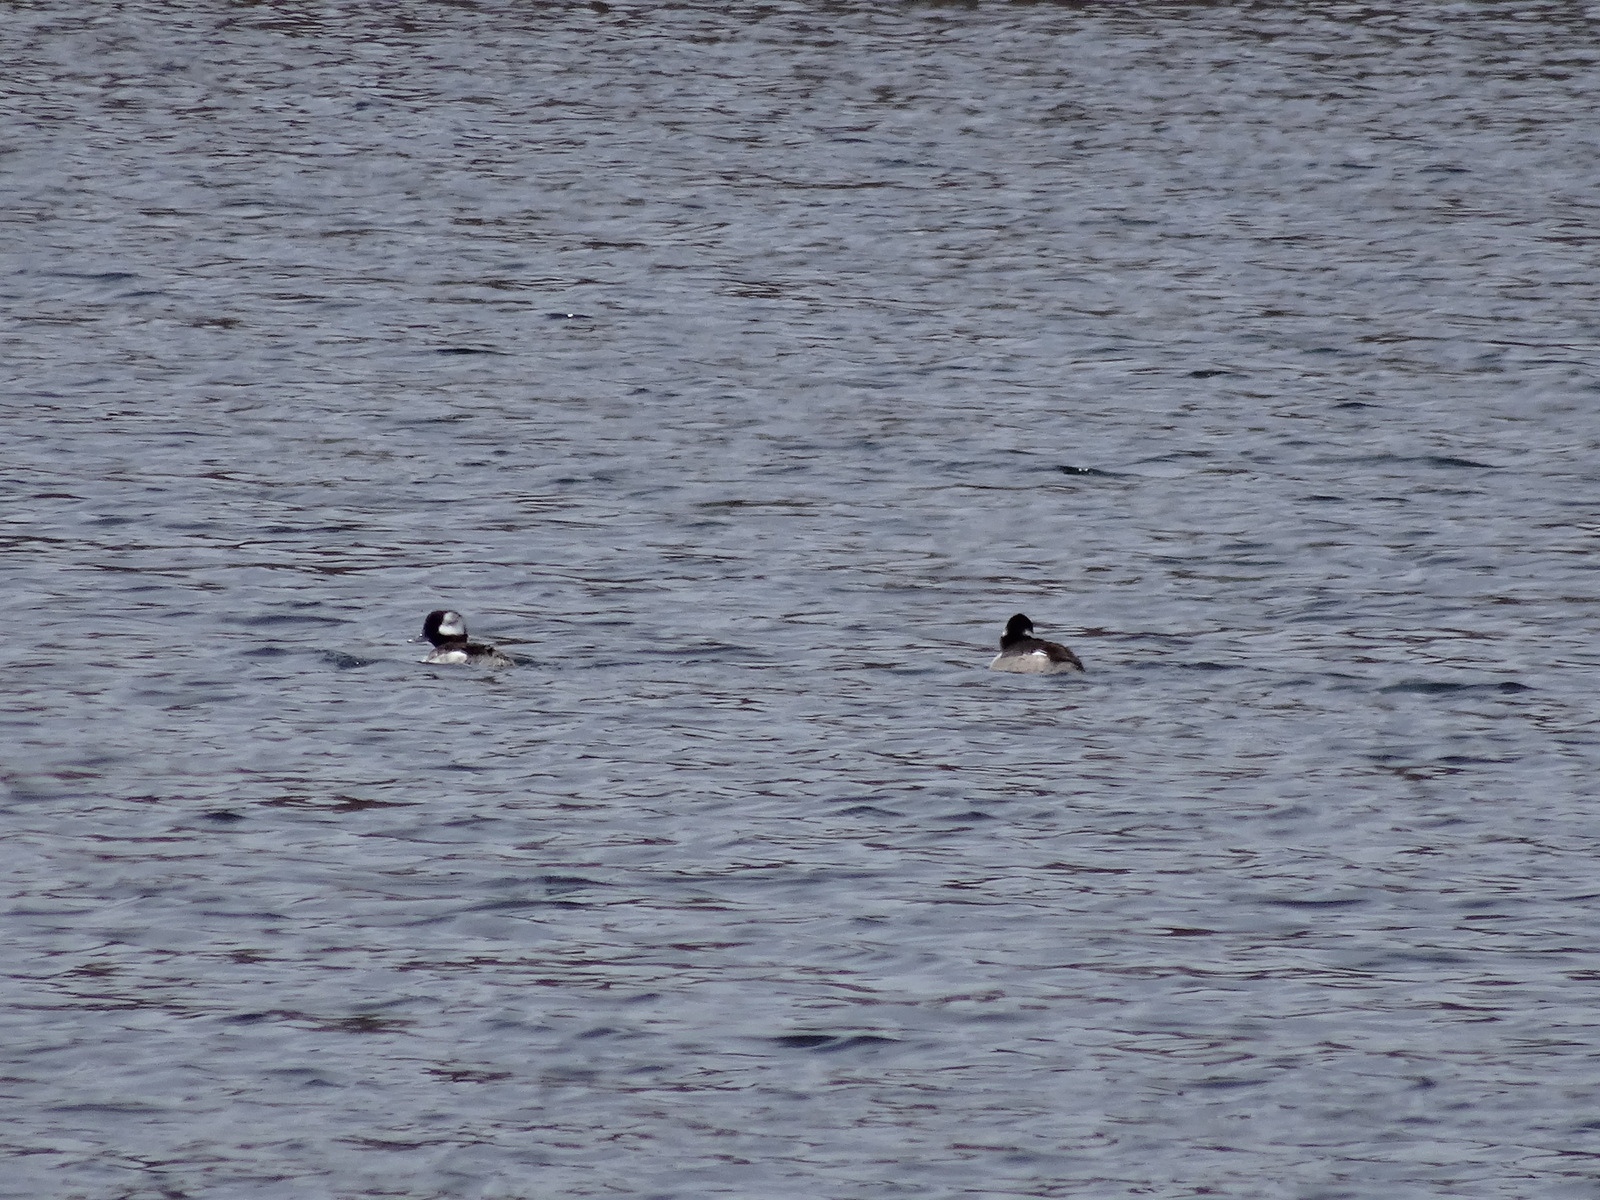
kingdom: Animalia
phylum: Chordata
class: Aves
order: Anseriformes
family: Anatidae
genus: Bucephala
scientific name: Bucephala albeola
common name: Bufflehead
